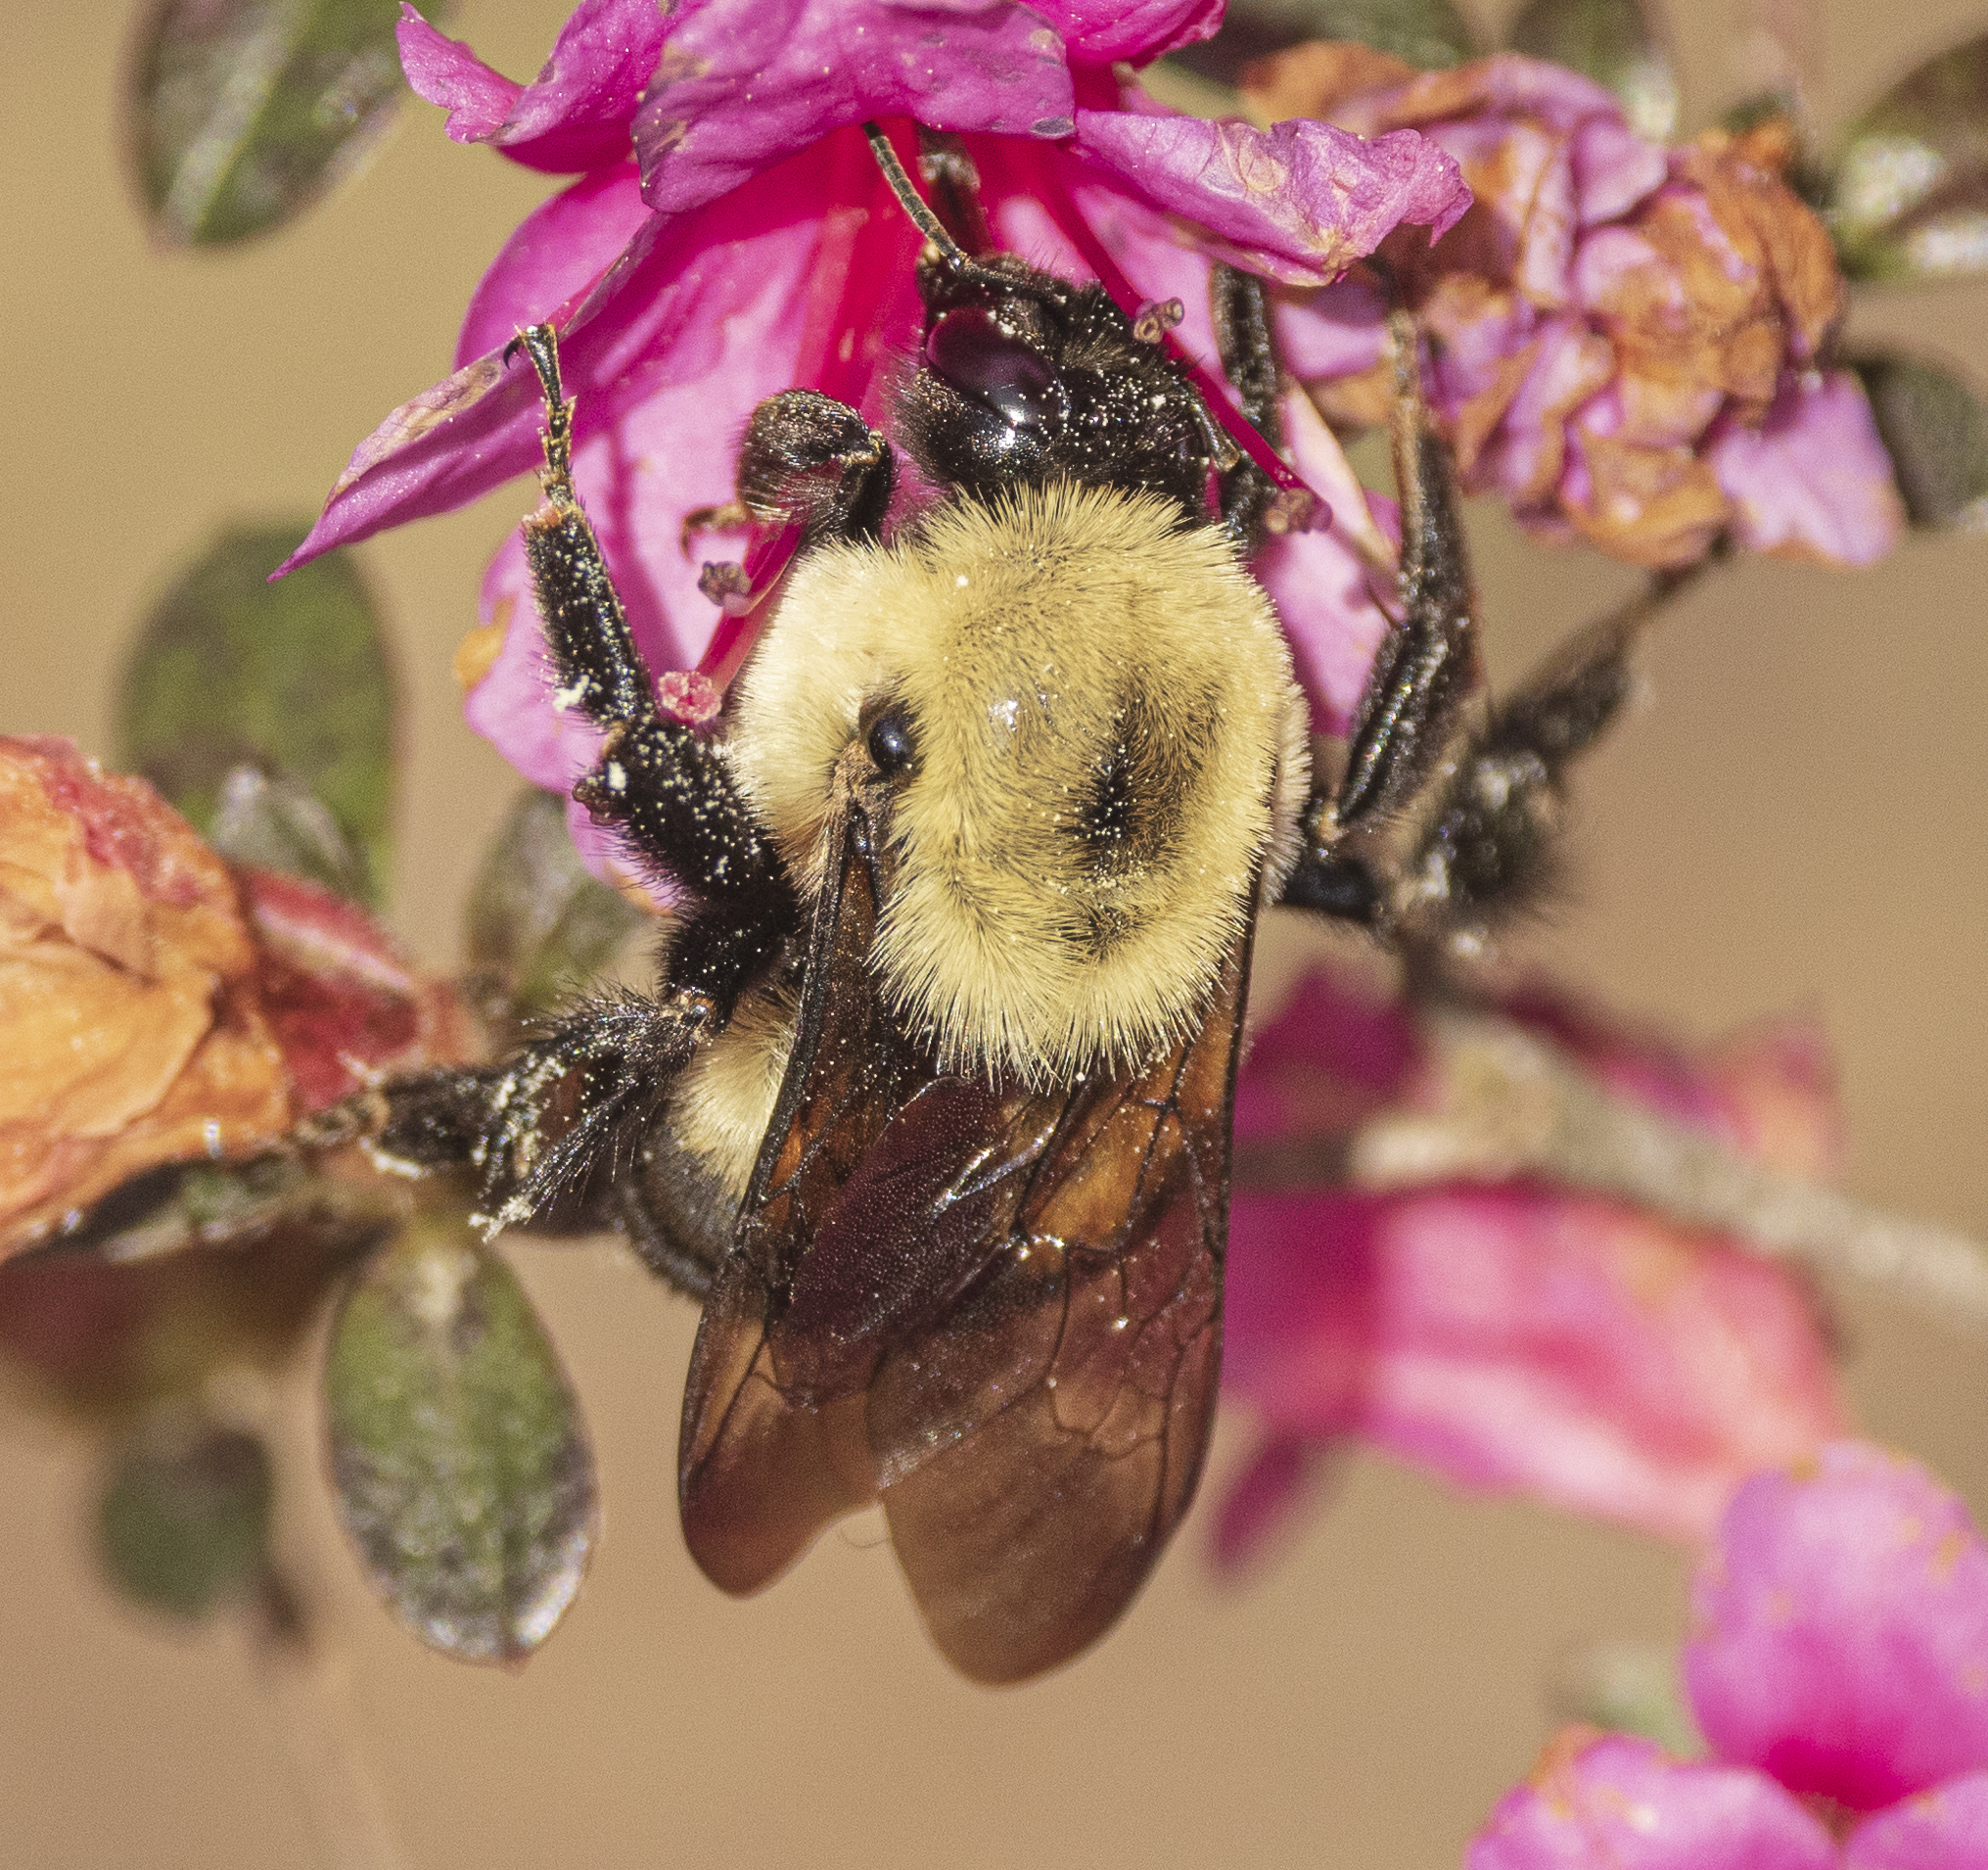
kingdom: Animalia
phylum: Arthropoda
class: Insecta
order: Hymenoptera
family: Apidae
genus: Bombus
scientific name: Bombus griseocollis
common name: Brown-belted bumble bee
